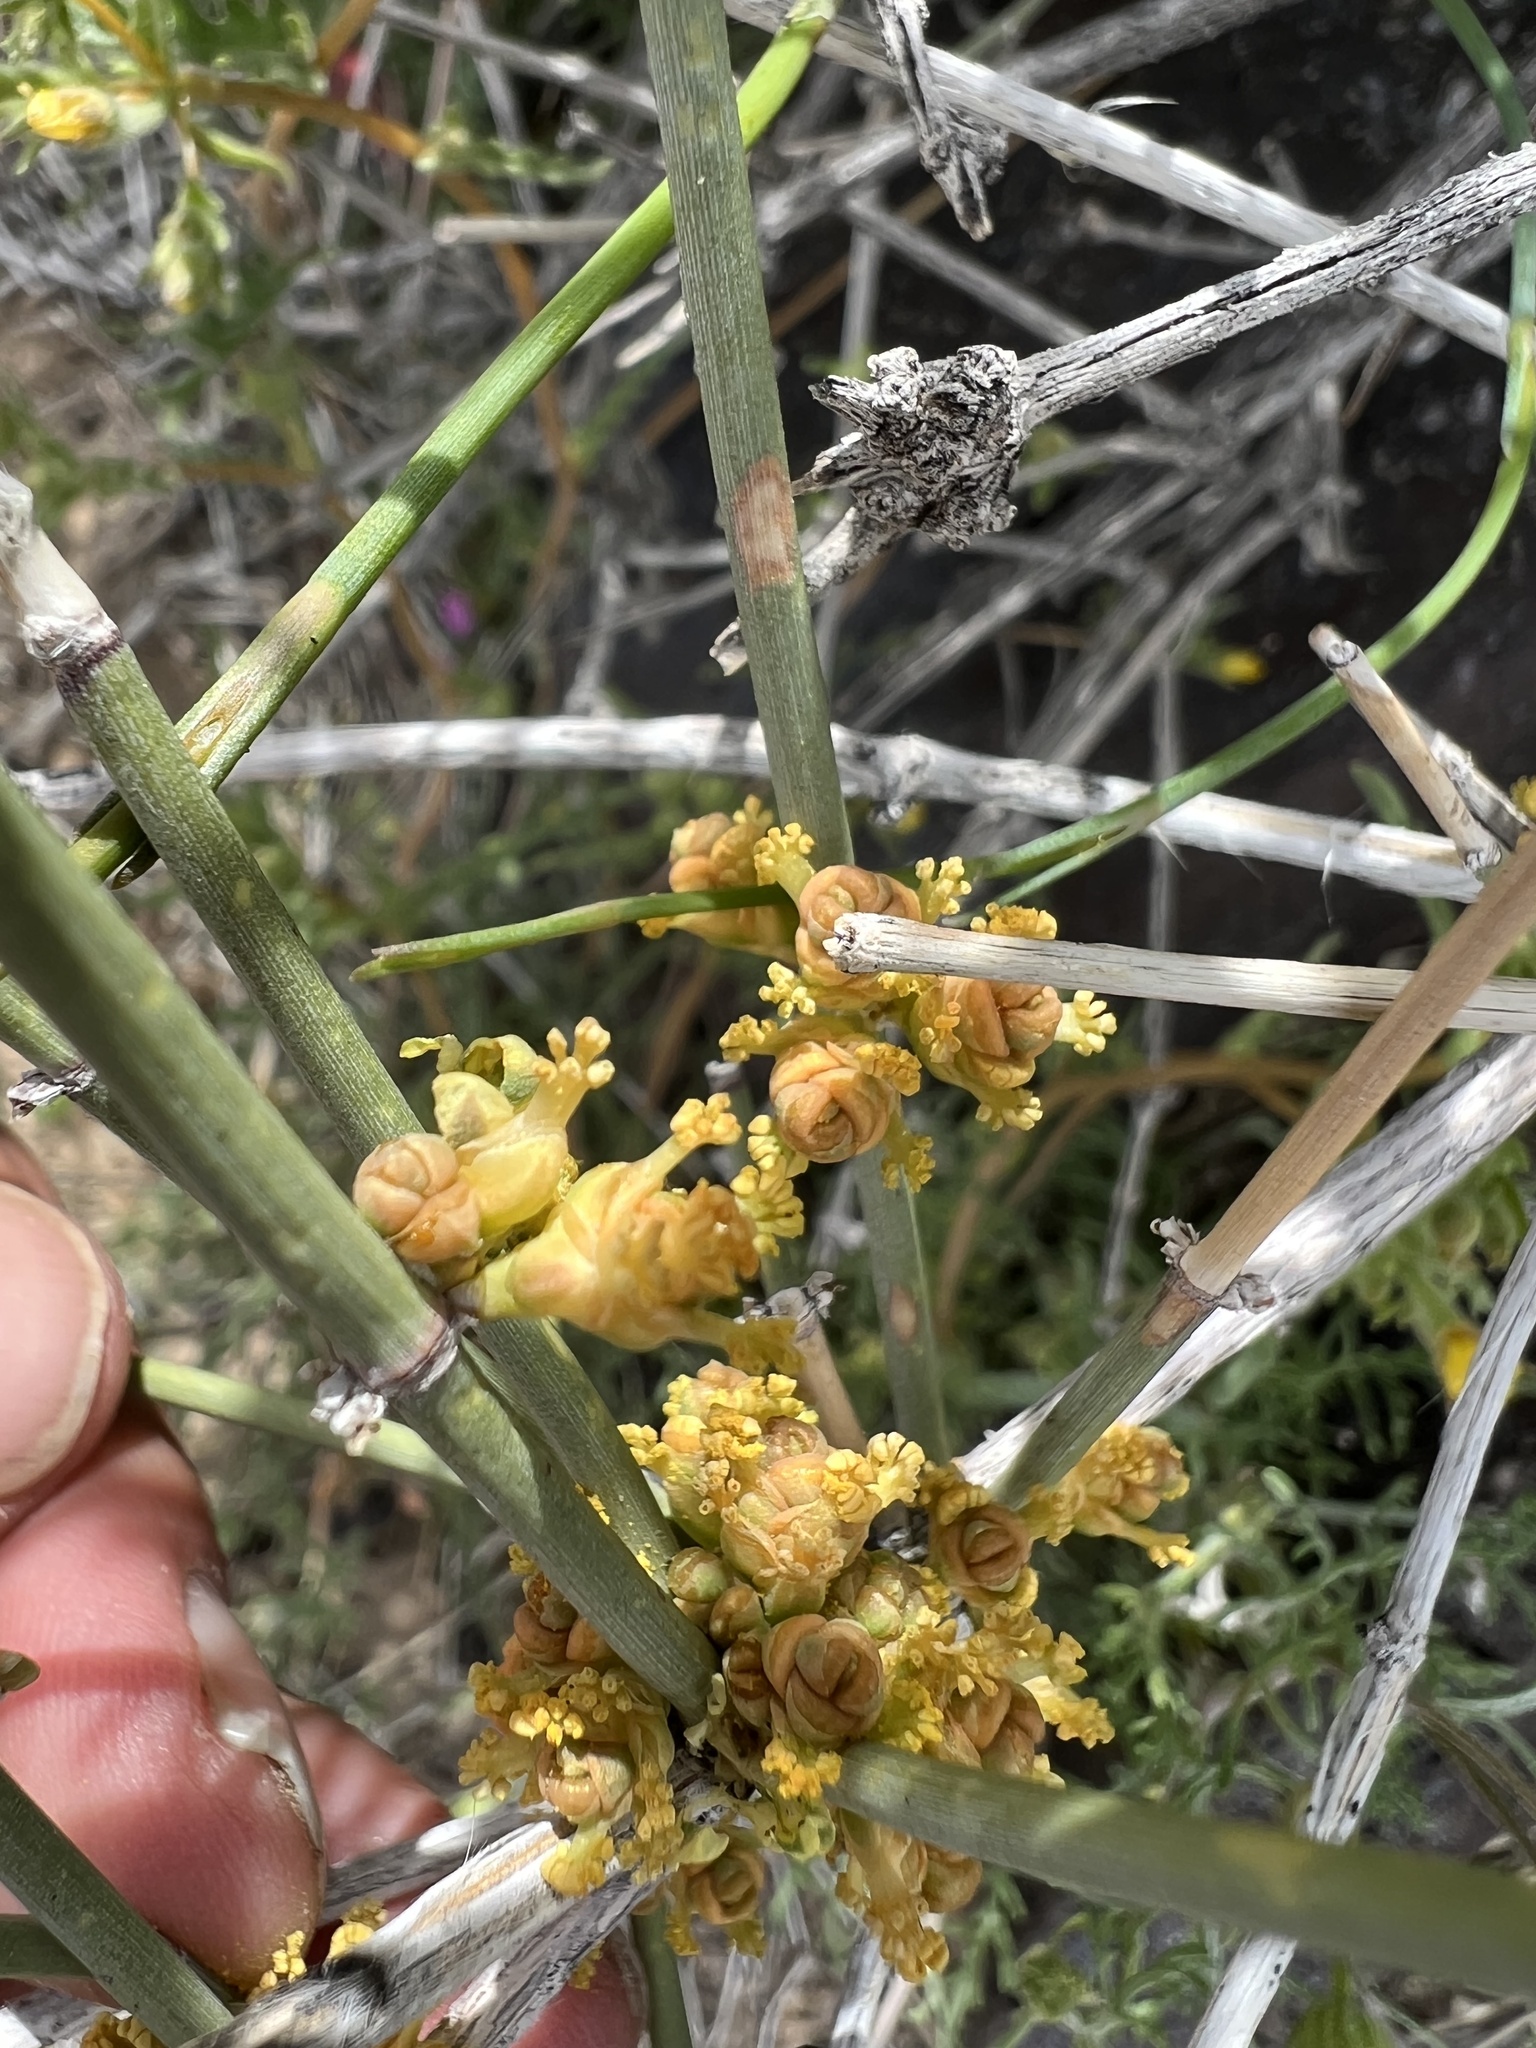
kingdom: Plantae
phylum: Tracheophyta
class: Gnetopsida
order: Ephedrales
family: Ephedraceae
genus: Ephedra
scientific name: Ephedra nevadensis
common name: Gray ephedra
